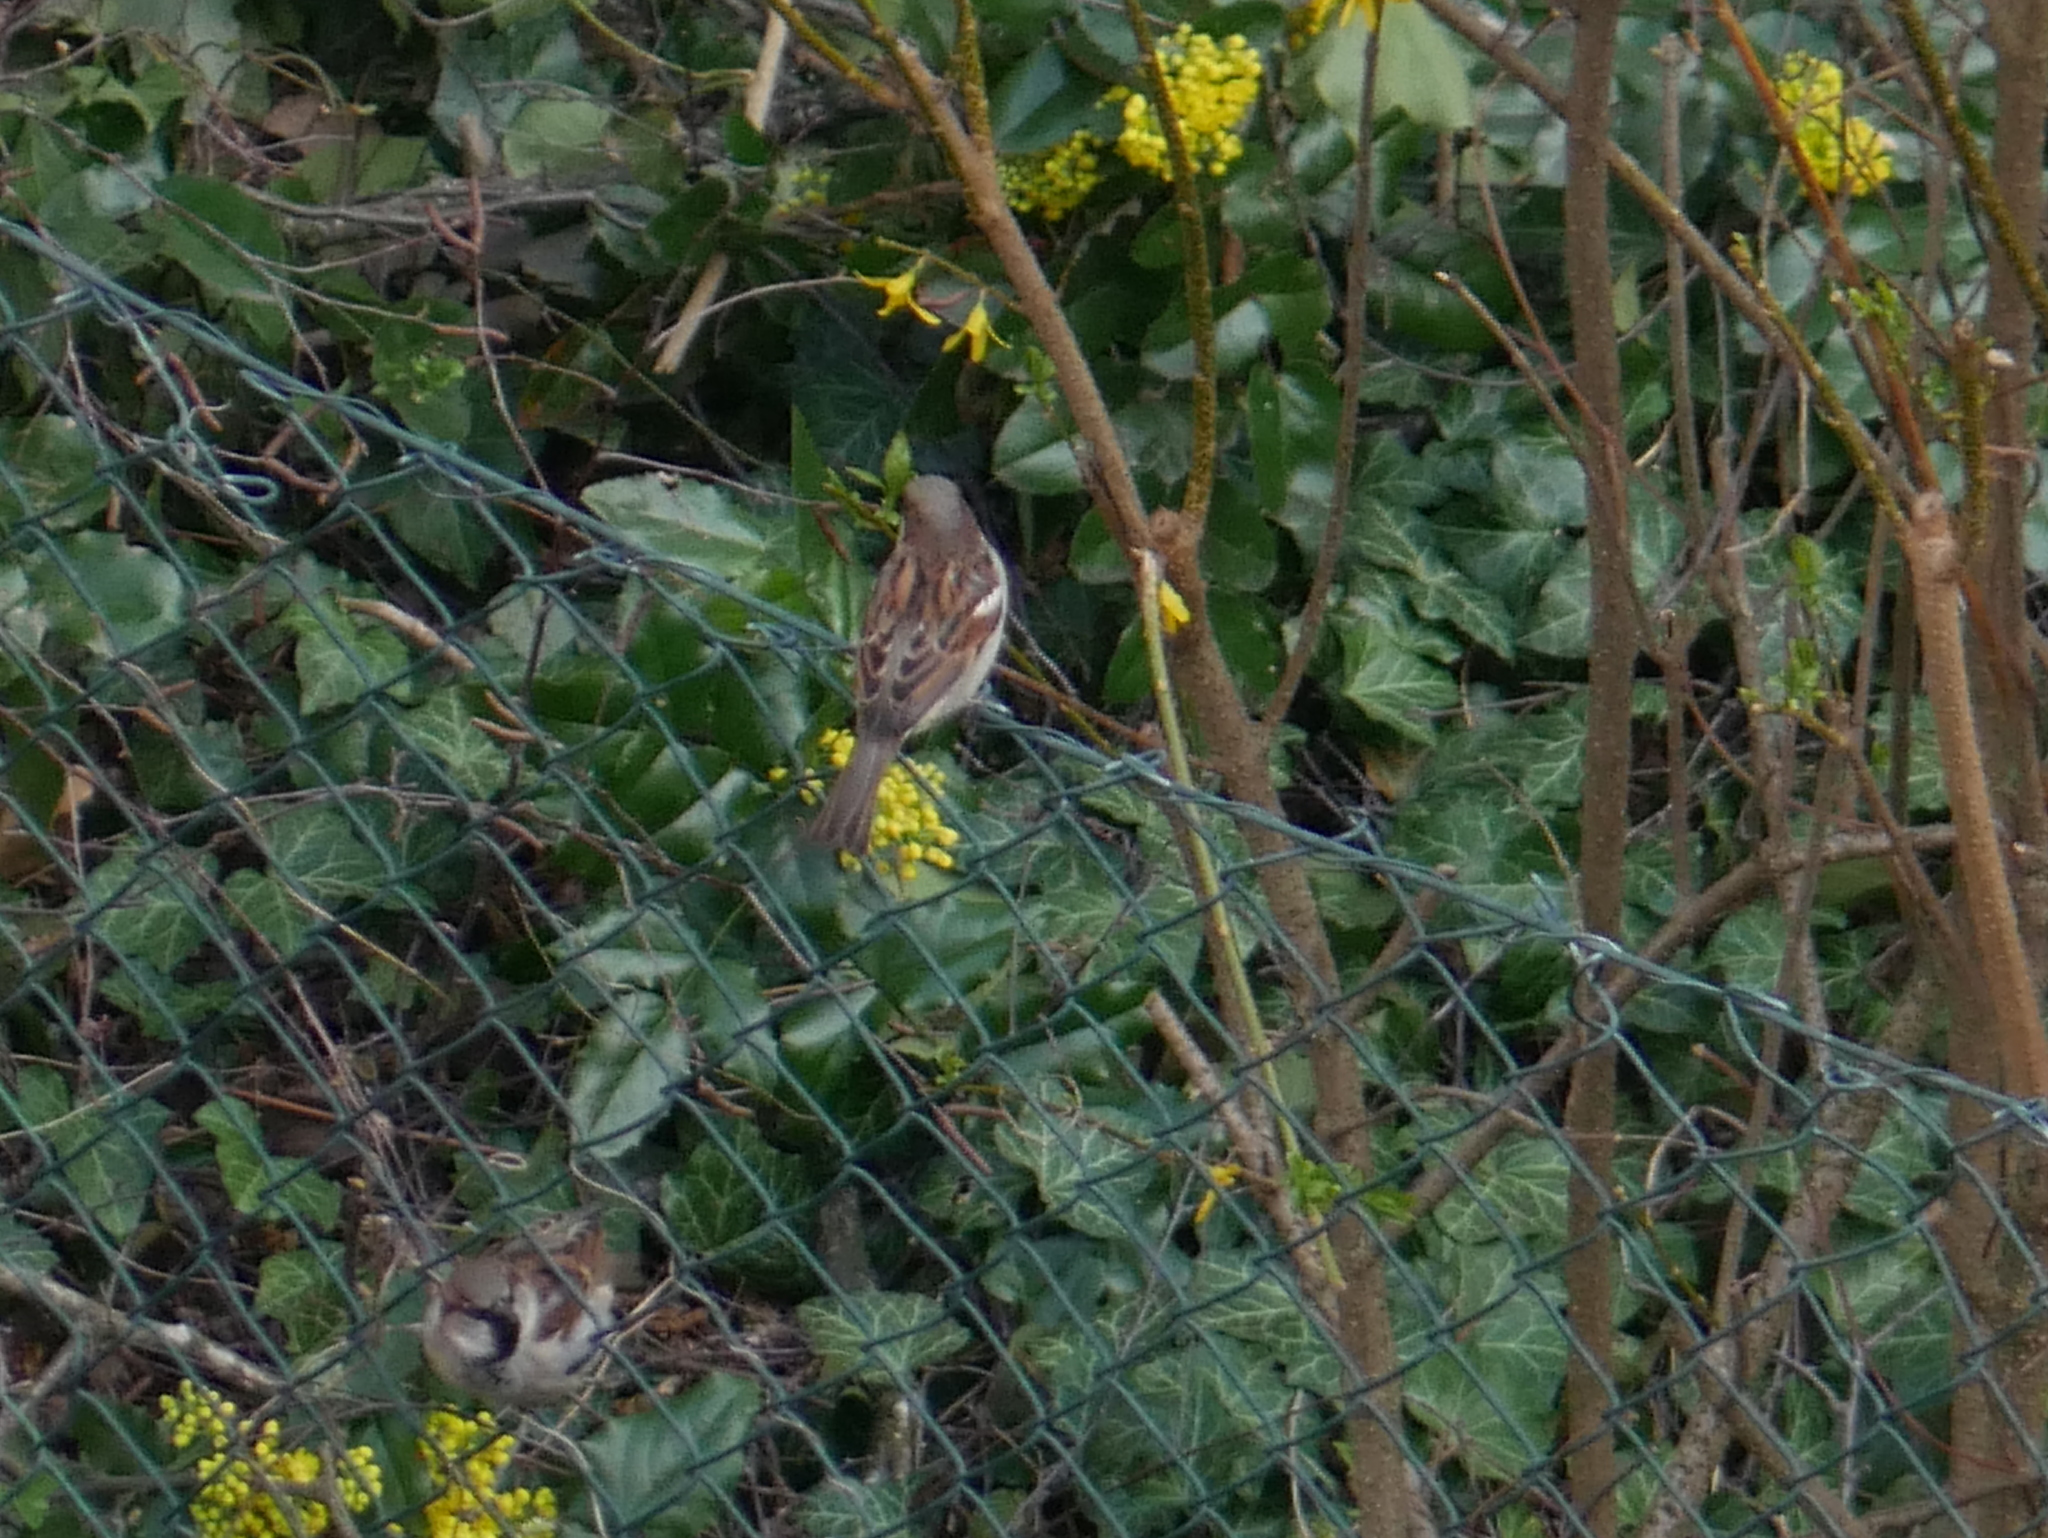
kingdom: Animalia
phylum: Chordata
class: Aves
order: Passeriformes
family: Passeridae
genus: Passer
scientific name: Passer domesticus
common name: House sparrow
